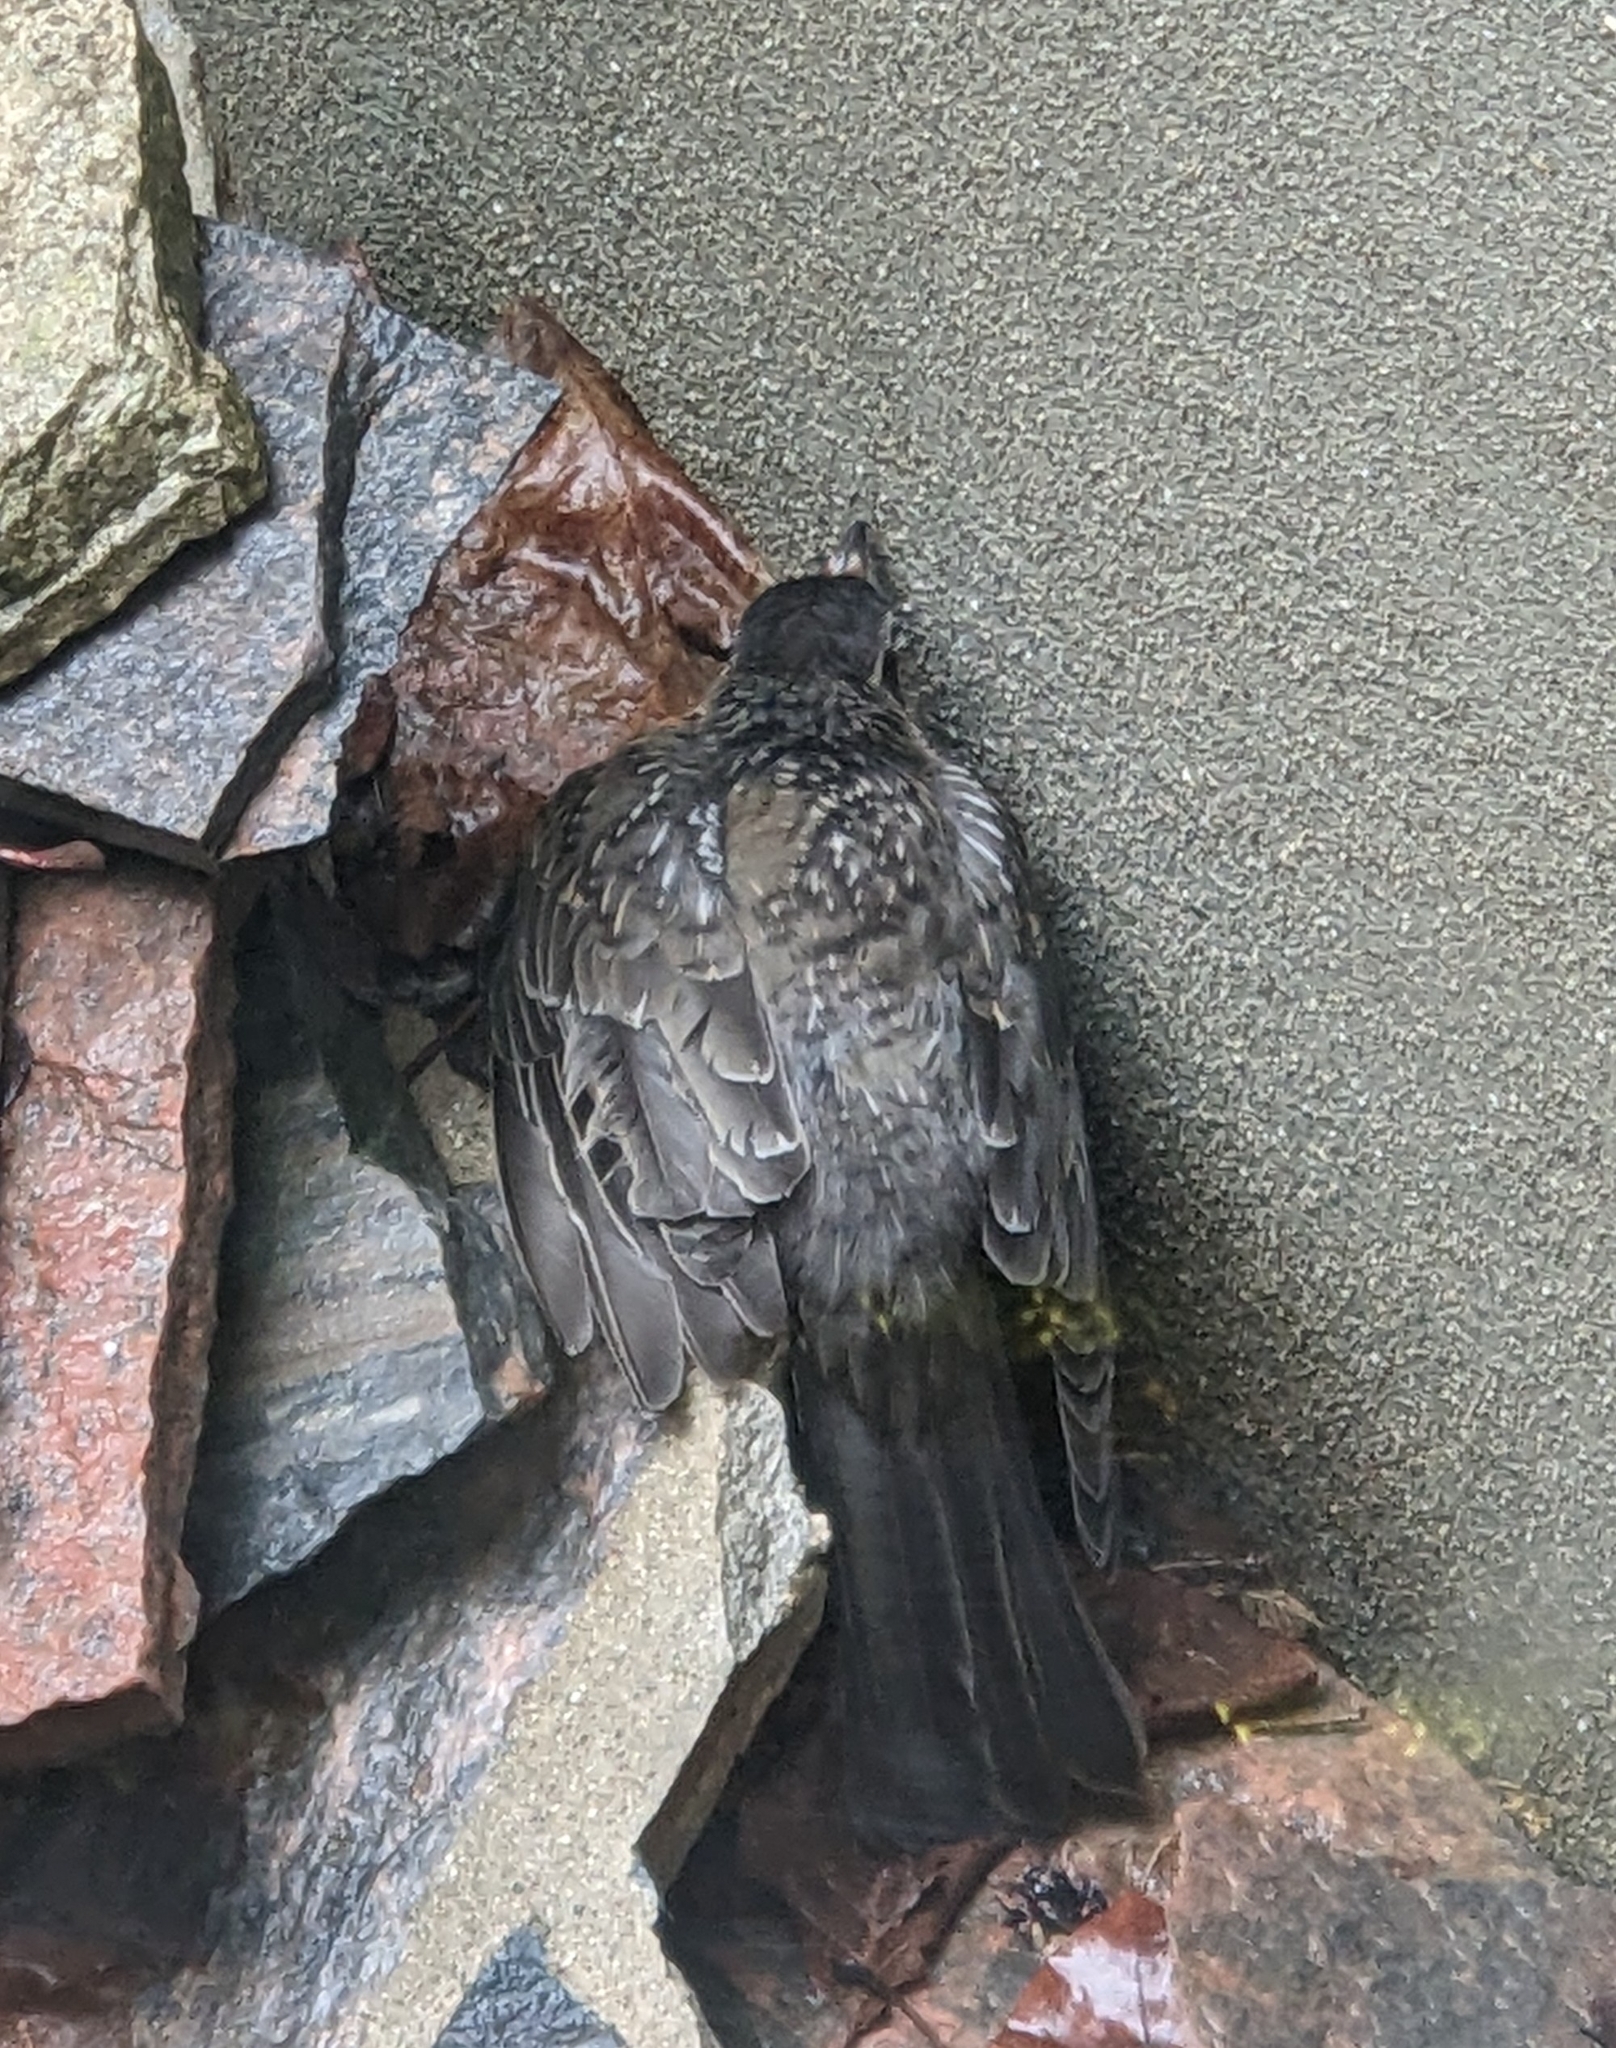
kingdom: Animalia
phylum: Chordata
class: Aves
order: Passeriformes
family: Turdidae
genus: Turdus
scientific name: Turdus migratorius
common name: American robin
